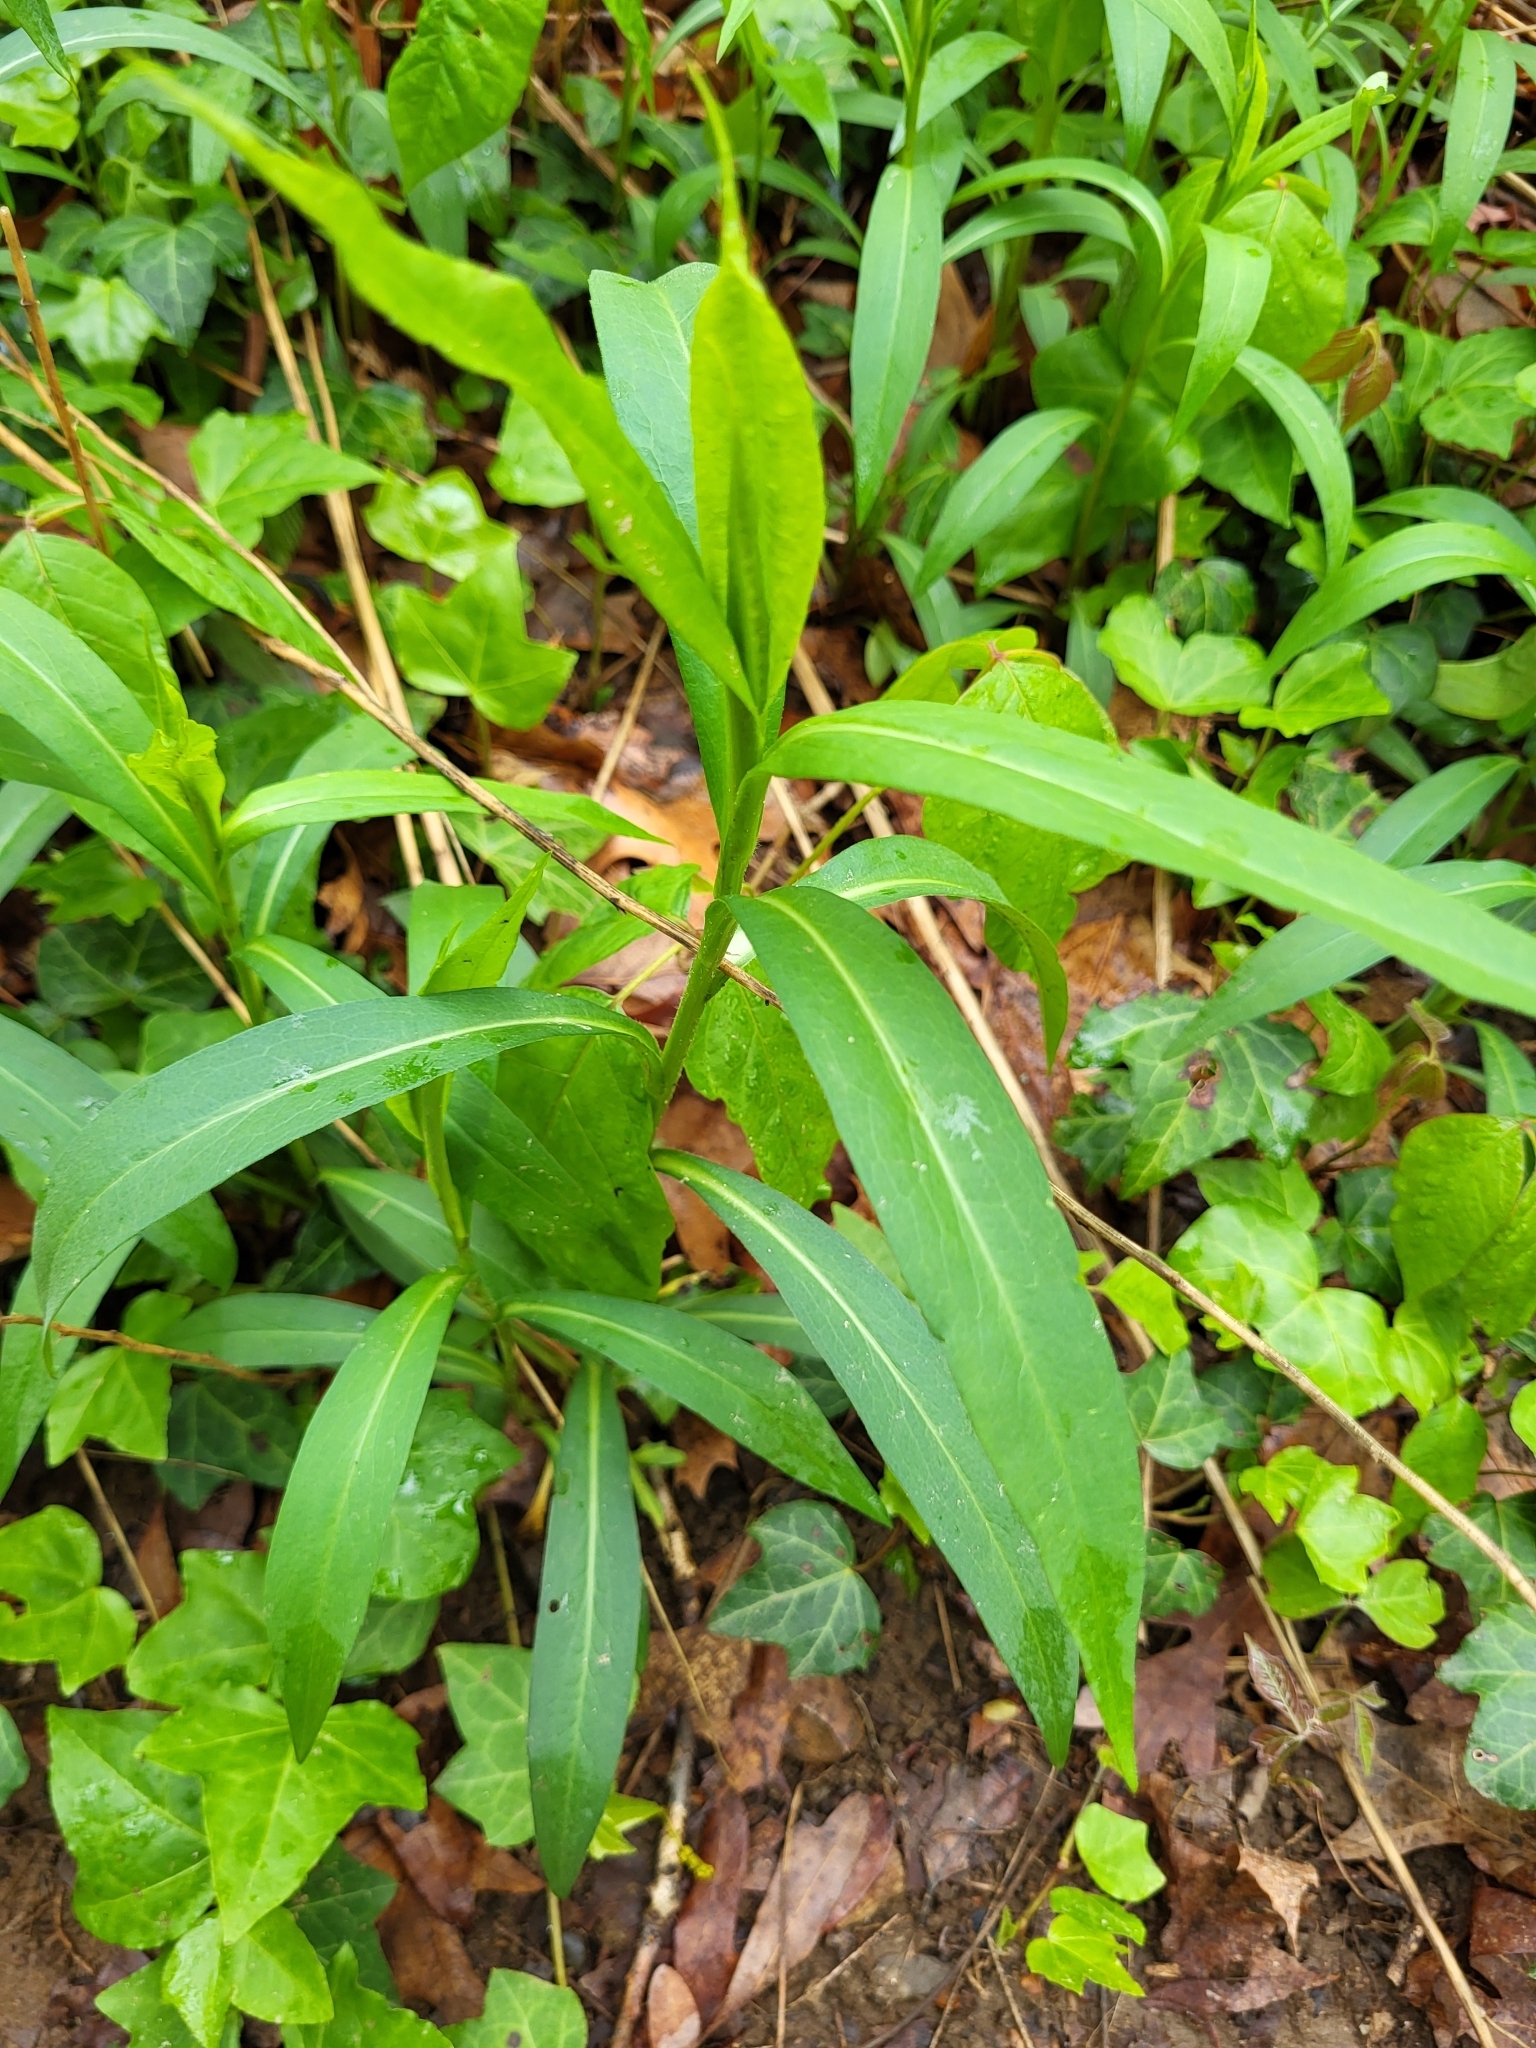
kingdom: Plantae
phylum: Tracheophyta
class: Magnoliopsida
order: Asterales
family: Asteraceae
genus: Symphyotrichum
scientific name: Symphyotrichum lanceolatum
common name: Panicled aster
